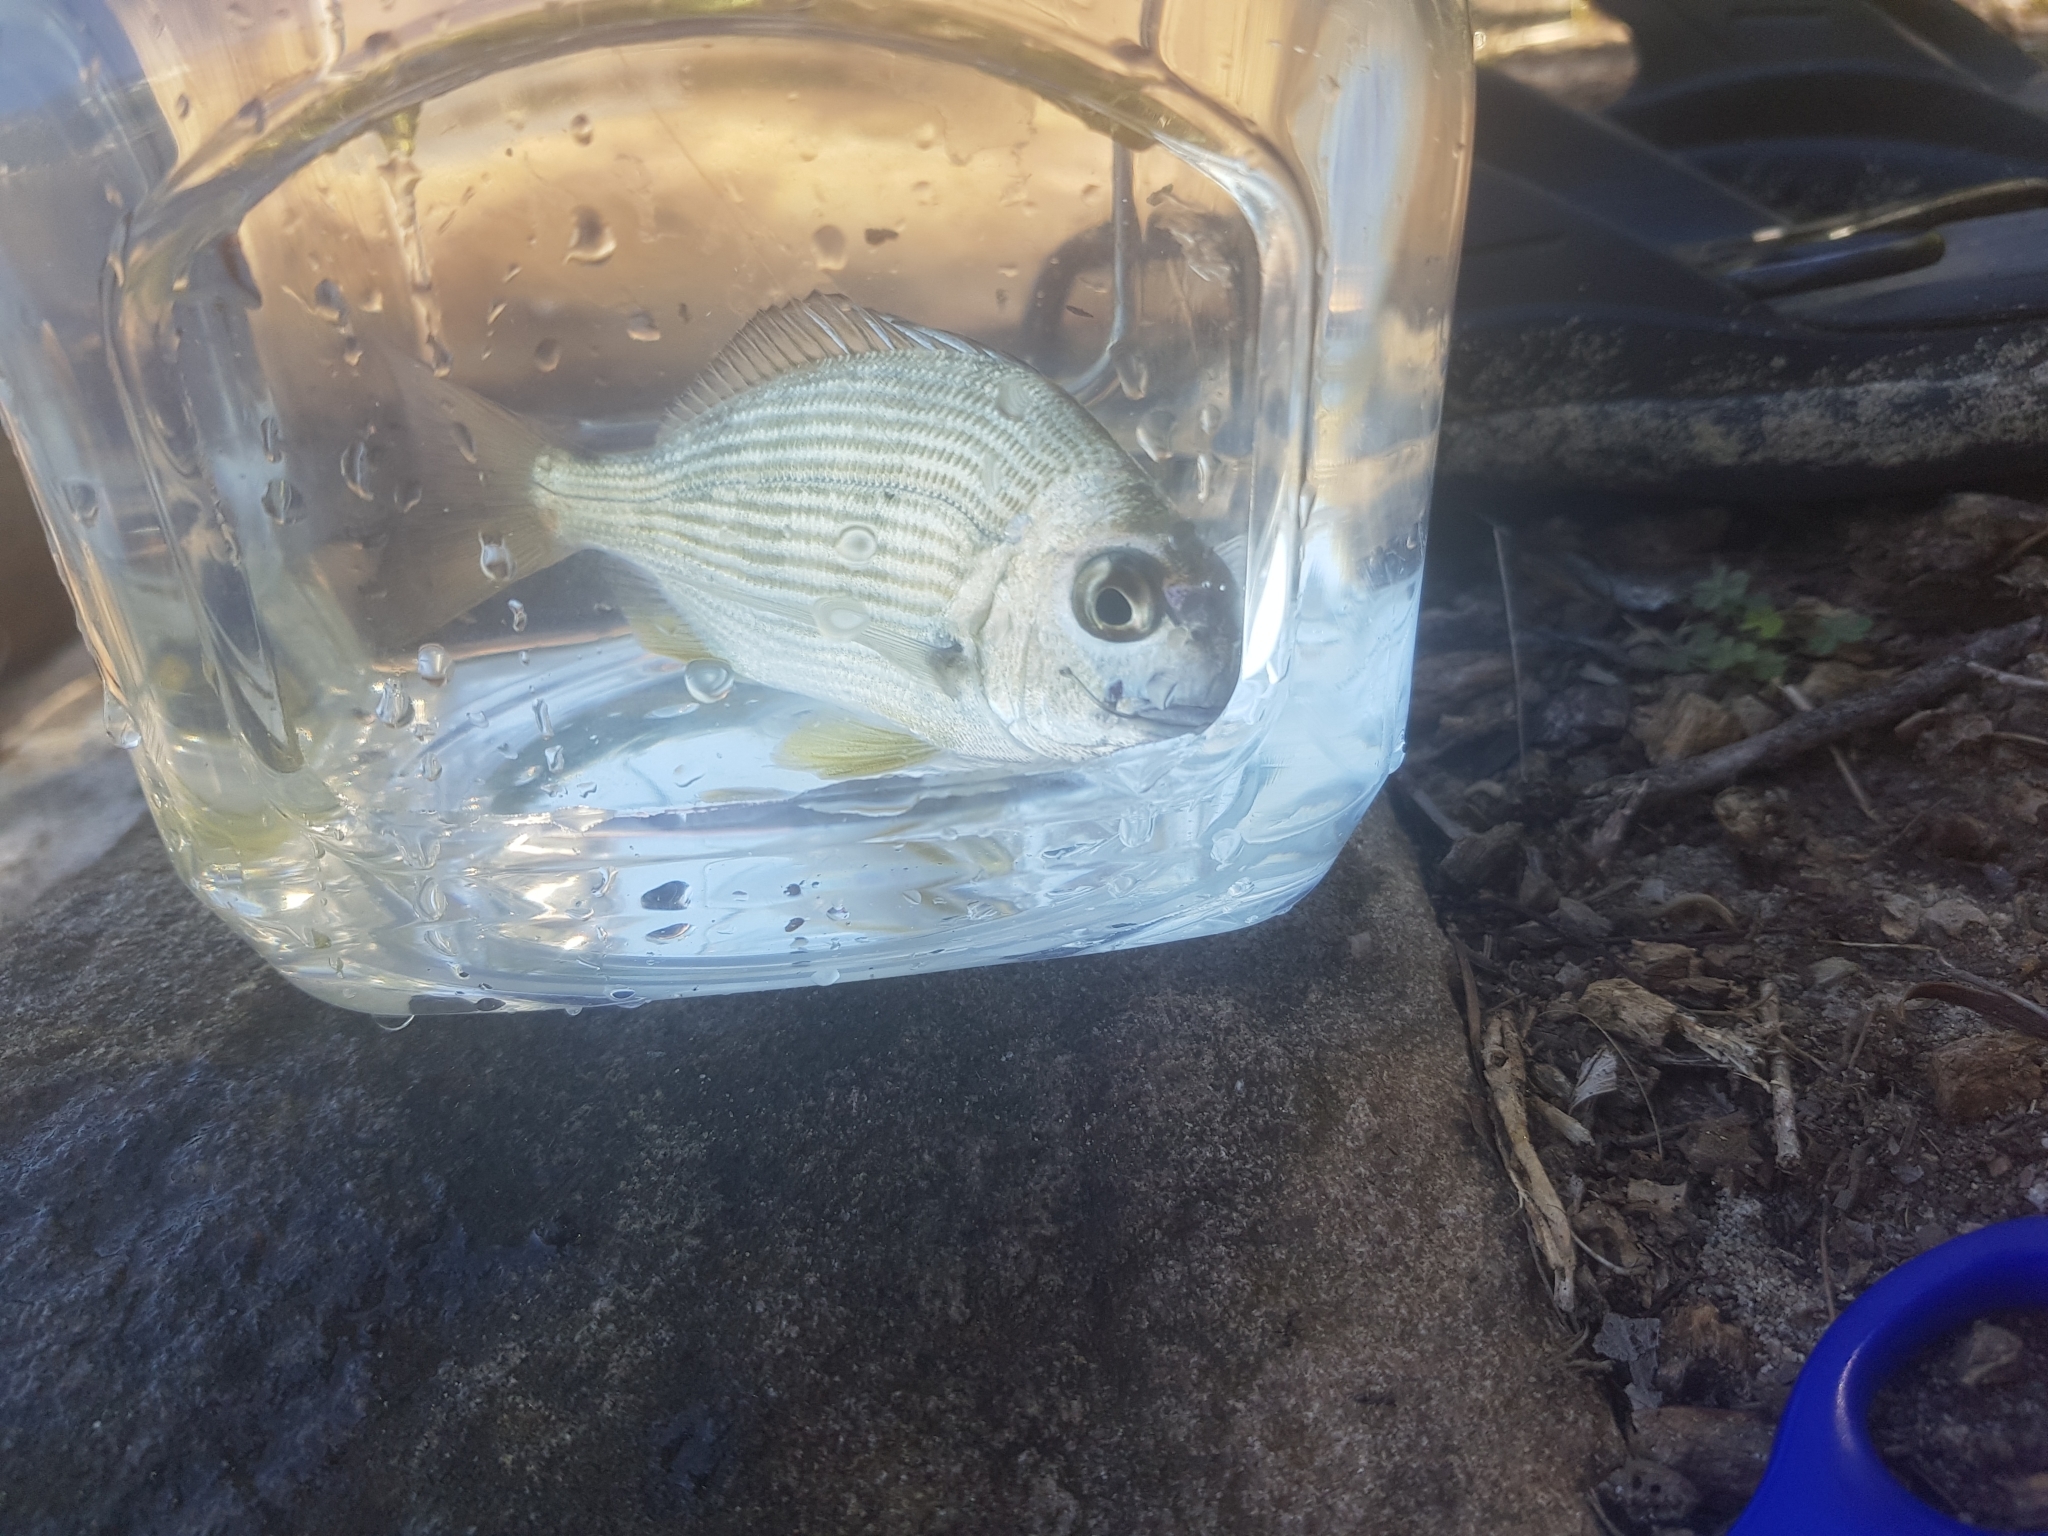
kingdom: Animalia
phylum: Chordata
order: Perciformes
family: Sparidae
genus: Rhabdosargus
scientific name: Rhabdosargus sarba
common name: Goldlined seabream
